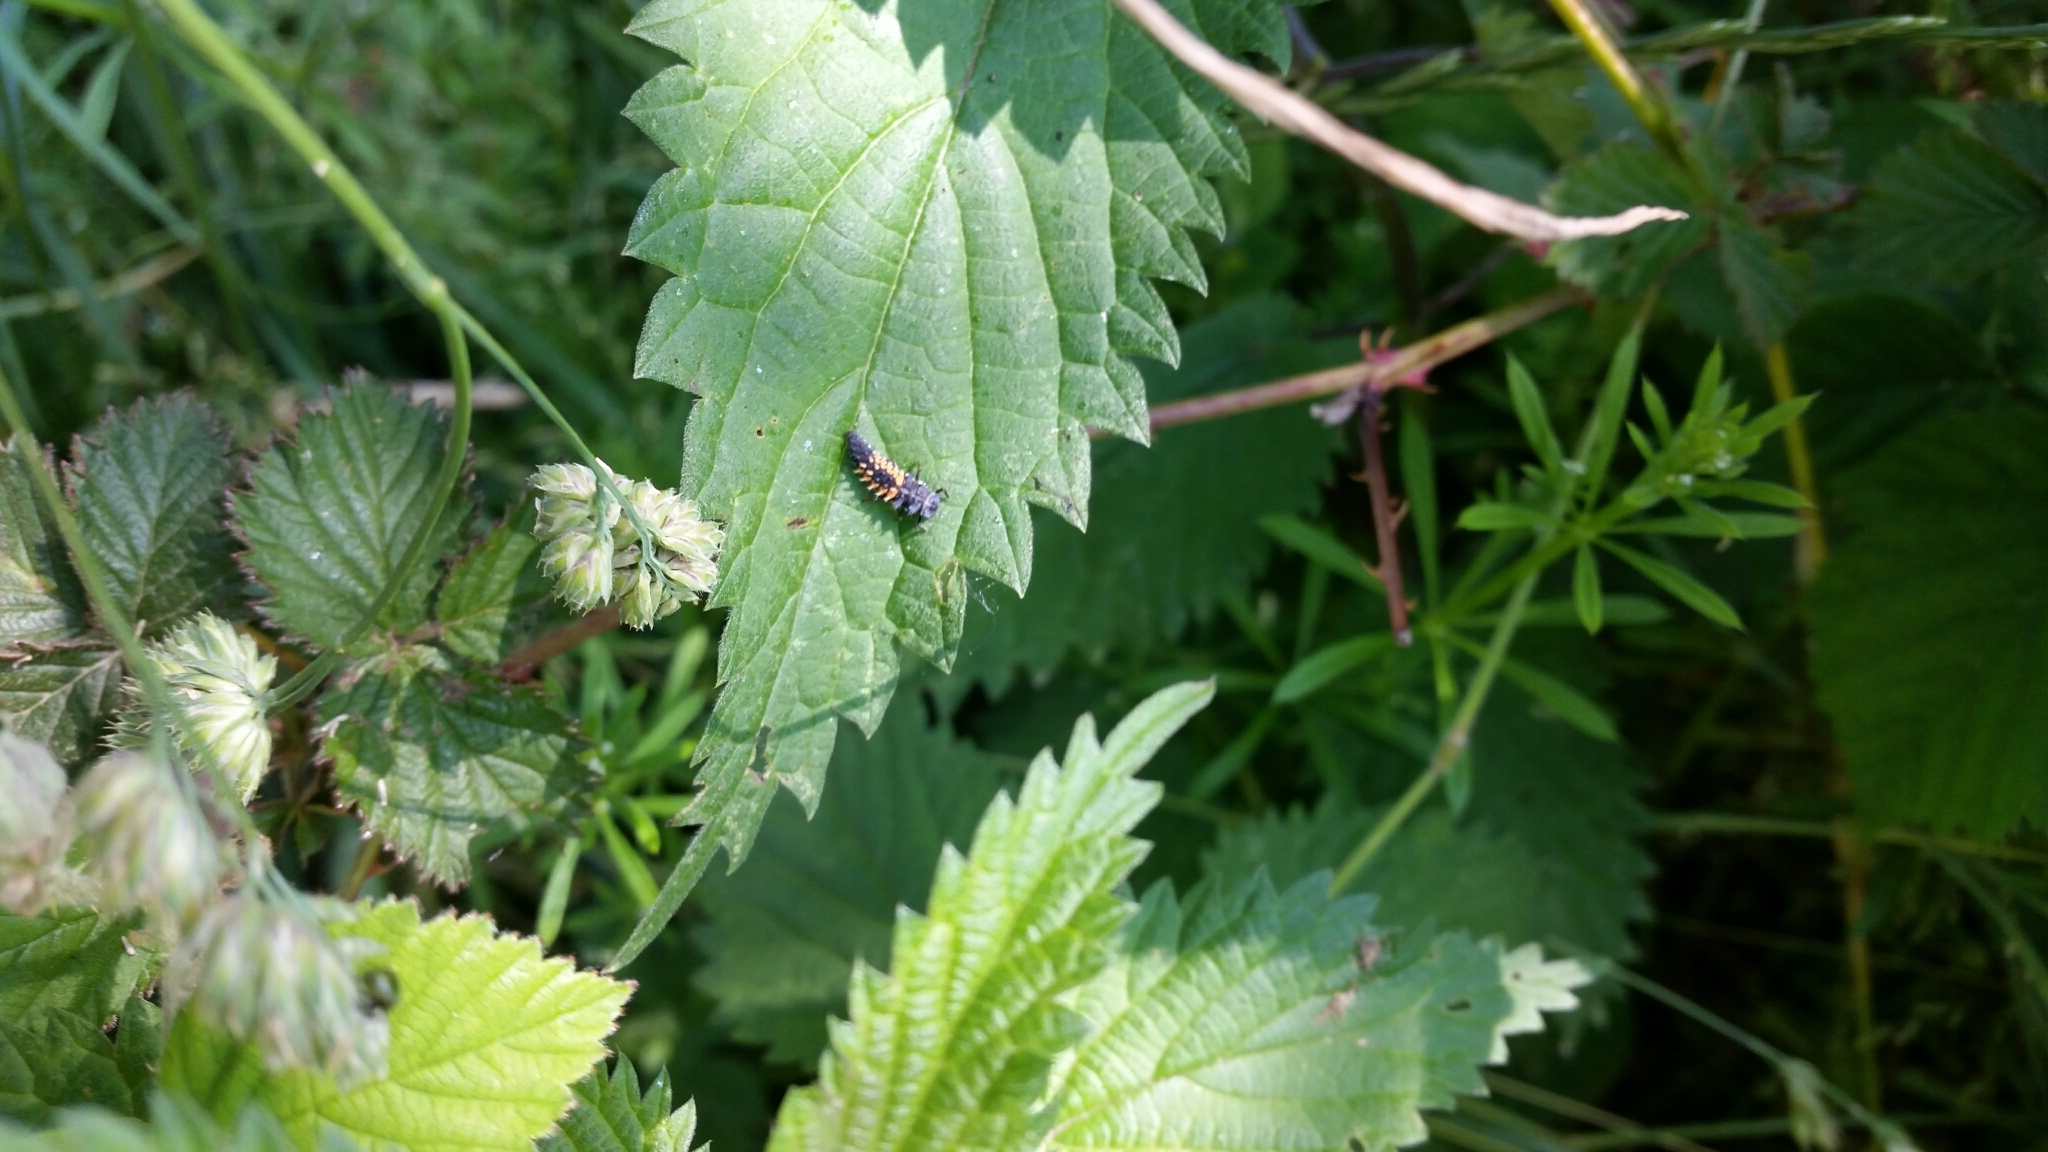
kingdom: Animalia
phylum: Arthropoda
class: Insecta
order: Coleoptera
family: Coccinellidae
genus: Harmonia
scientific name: Harmonia axyridis
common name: Harlequin ladybird
